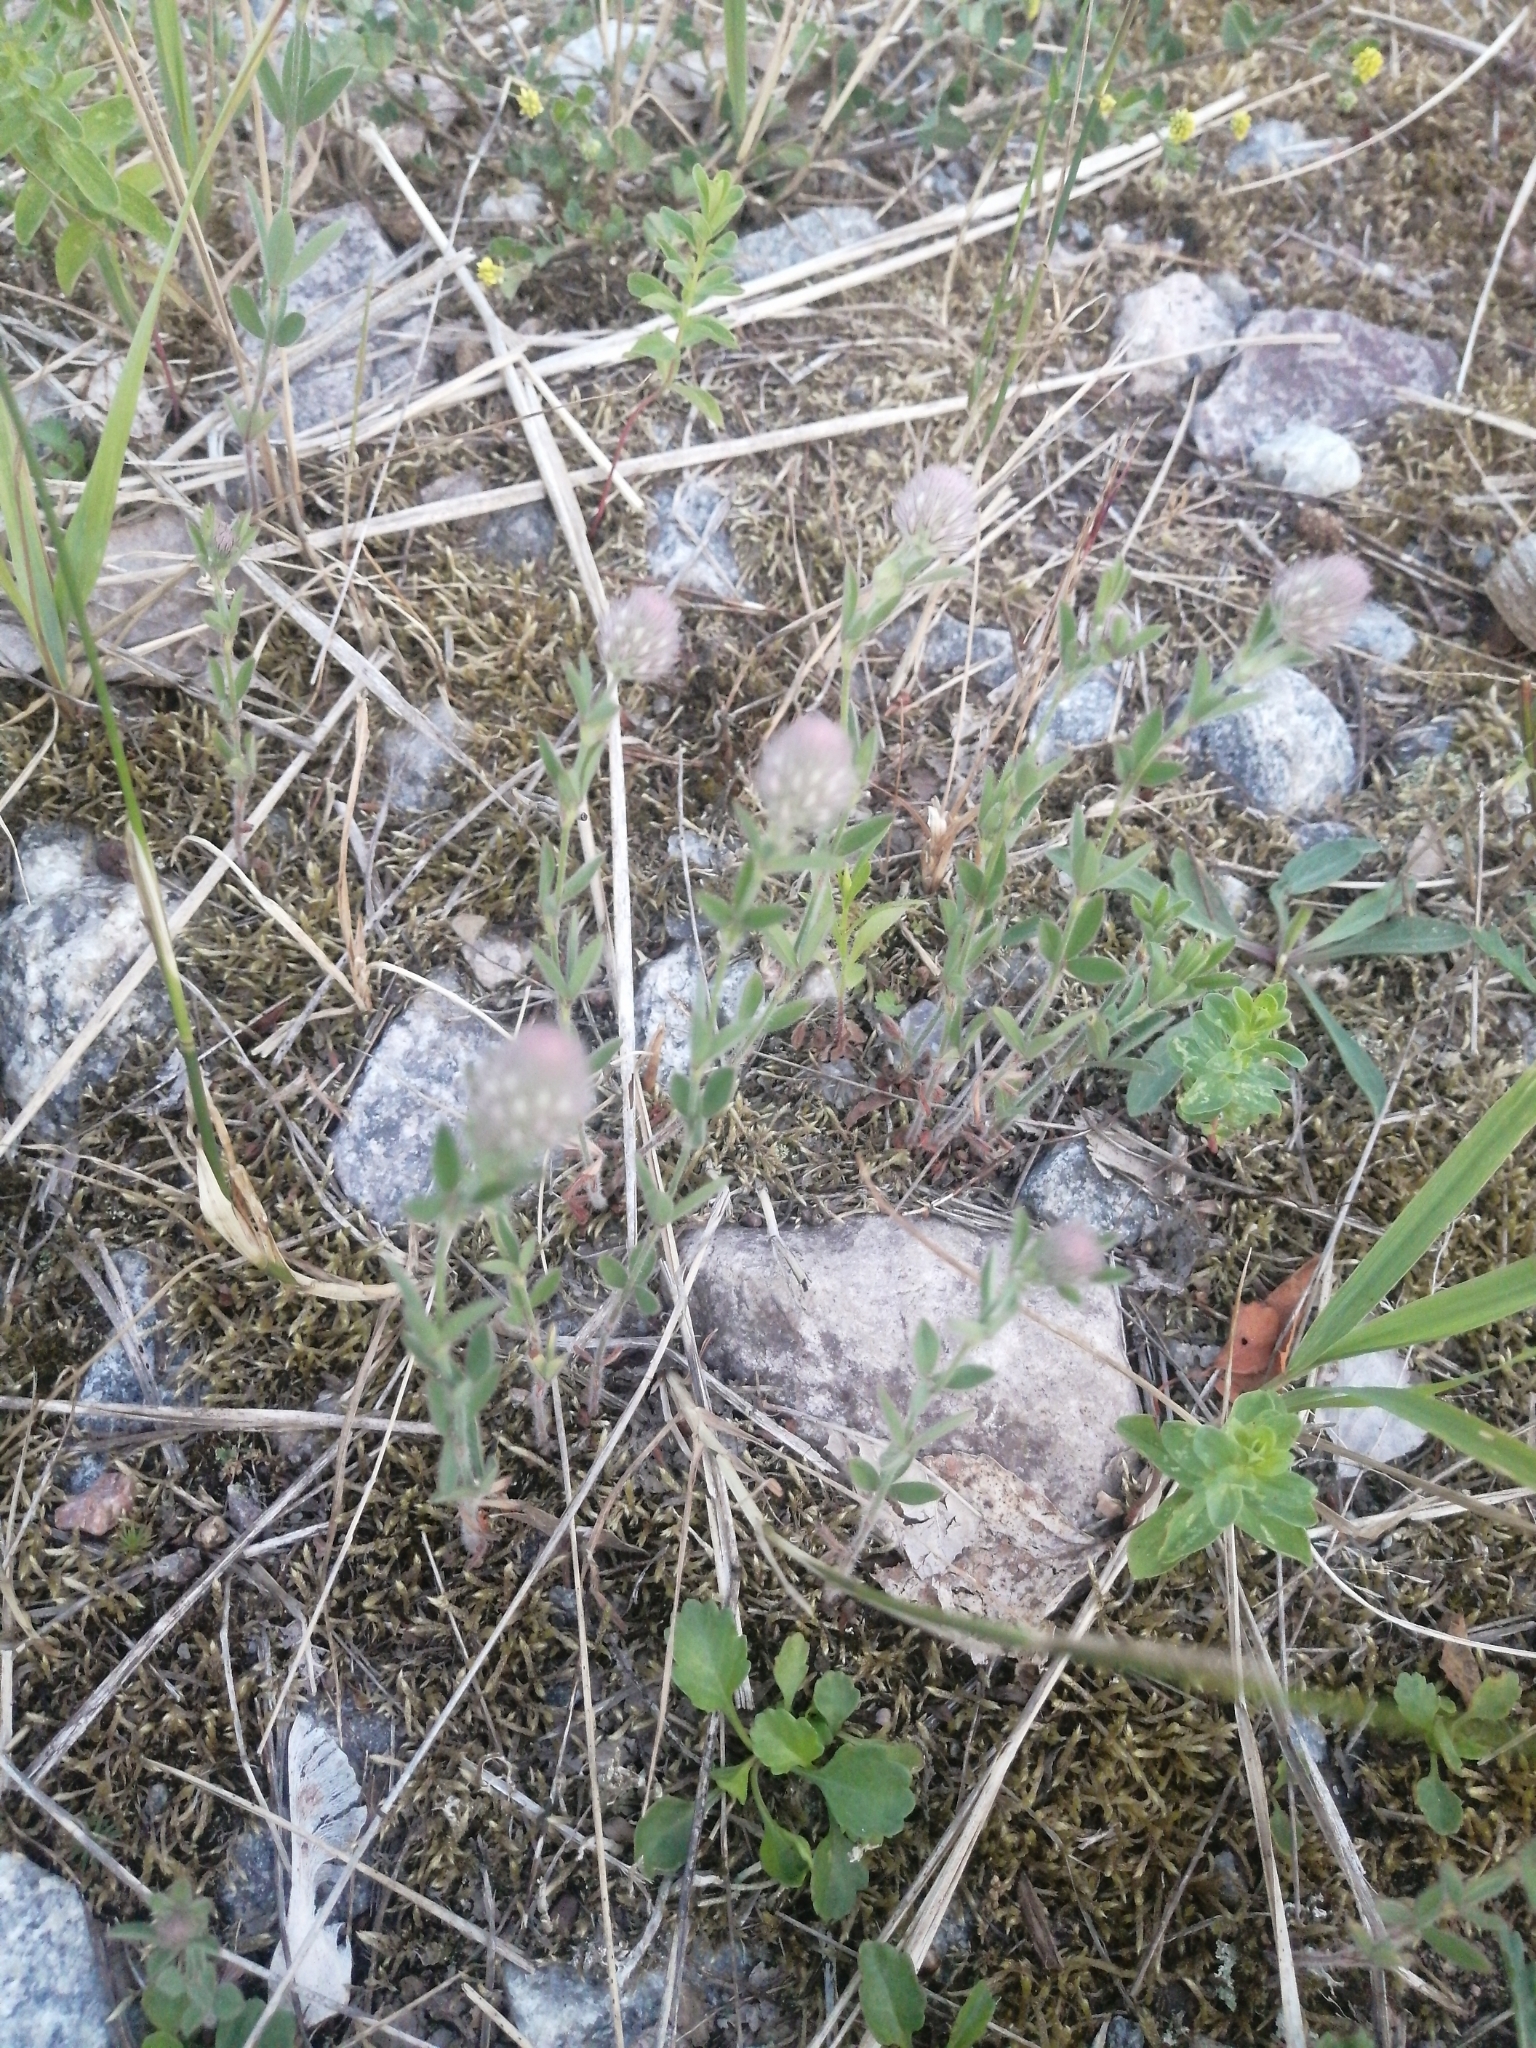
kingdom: Plantae
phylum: Tracheophyta
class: Magnoliopsida
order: Fabales
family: Fabaceae
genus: Trifolium
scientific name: Trifolium arvense
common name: Hare's-foot clover
